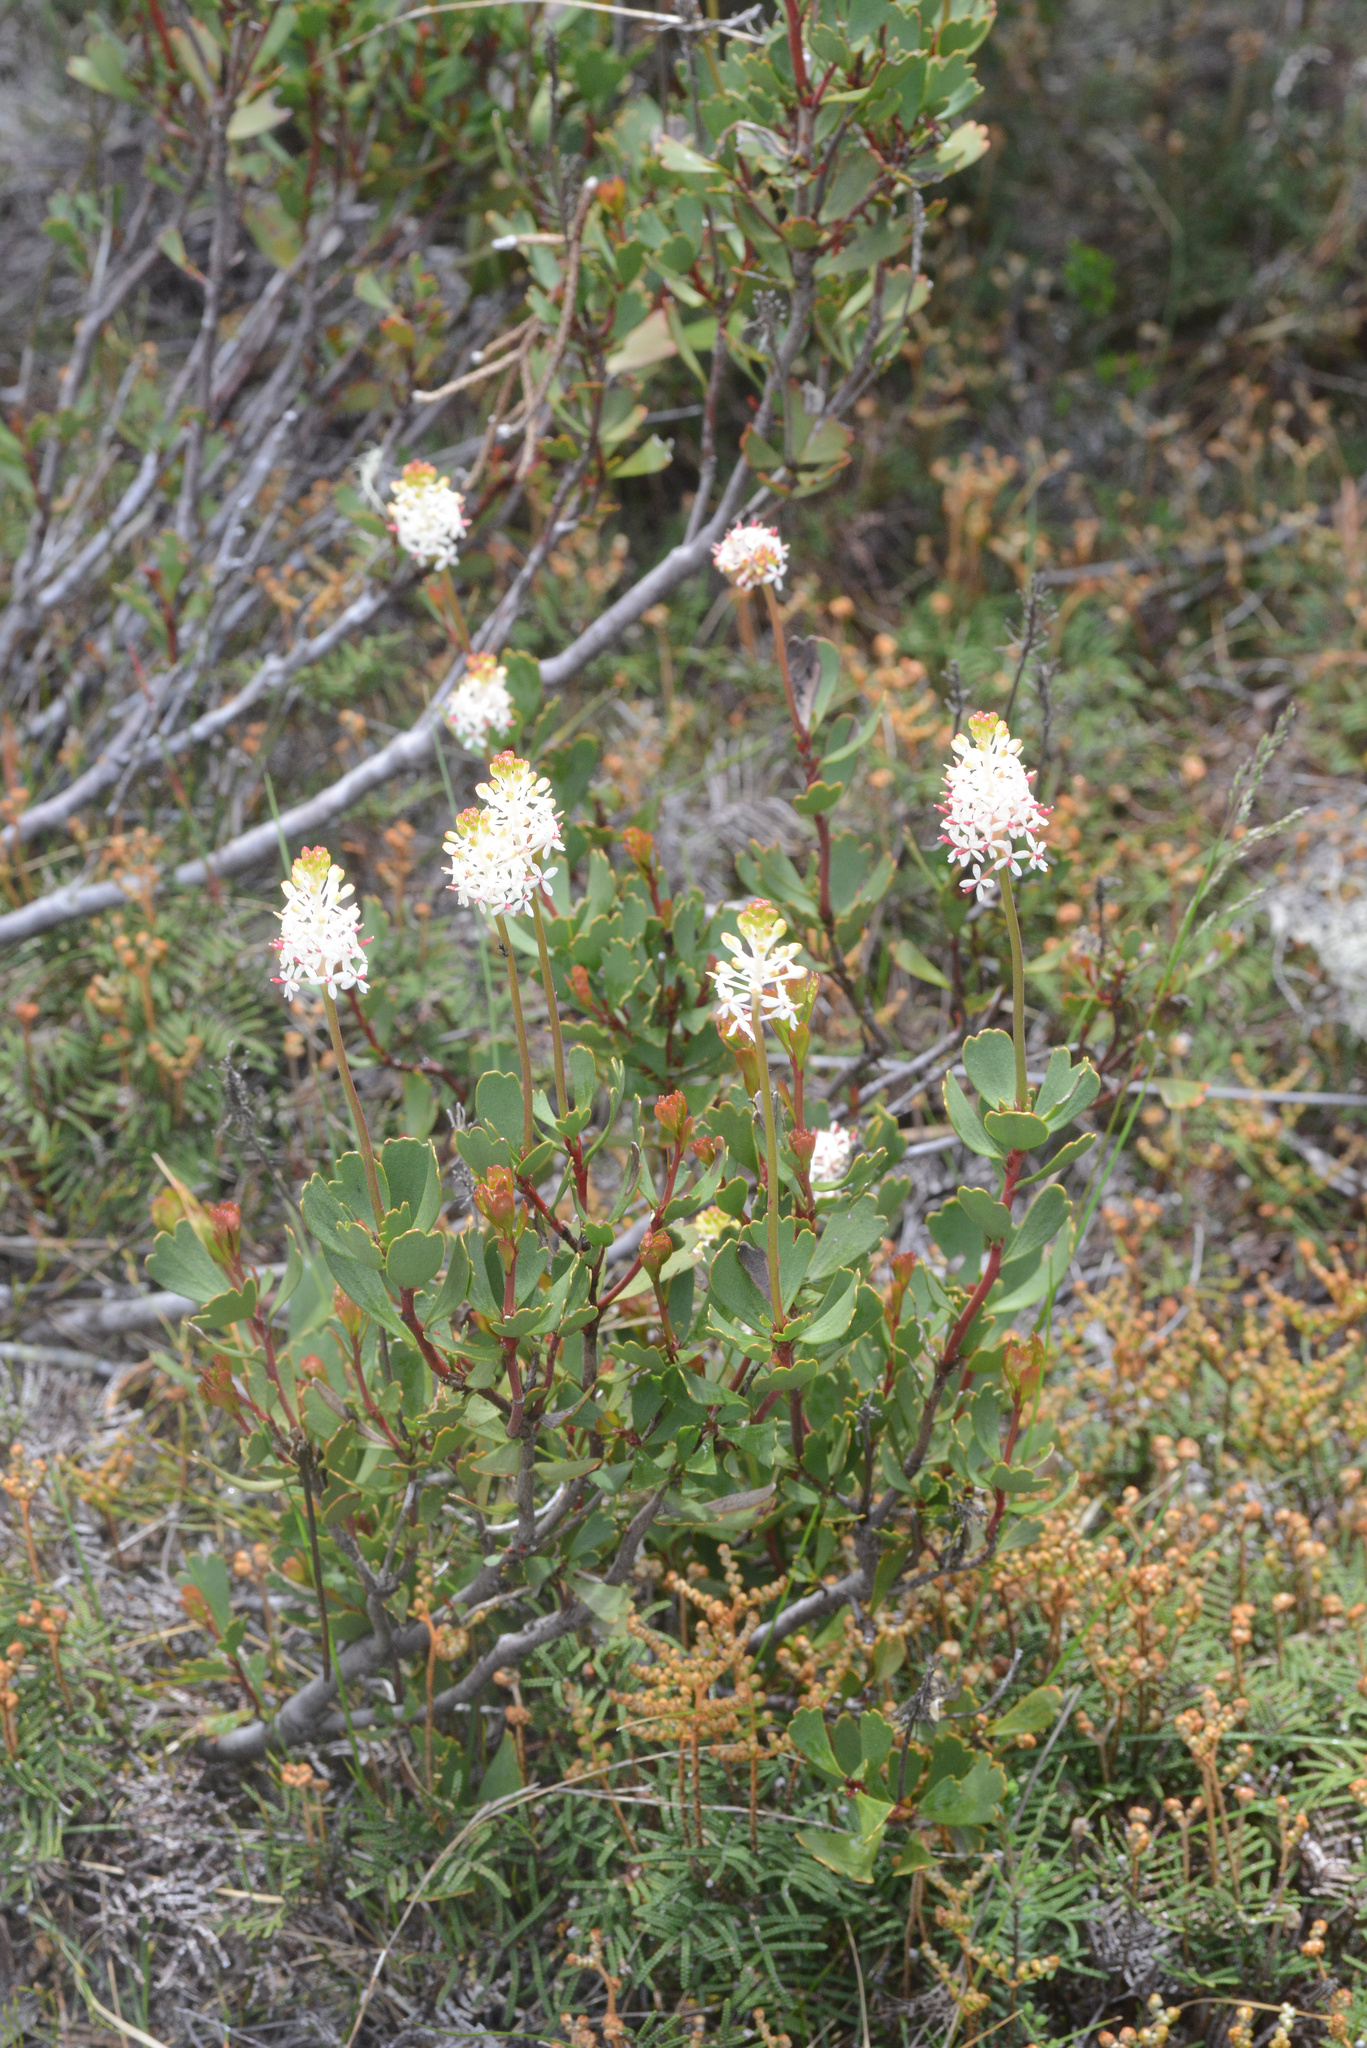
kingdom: Plantae
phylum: Tracheophyta
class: Magnoliopsida
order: Proteales
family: Proteaceae
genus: Bellendena
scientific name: Bellendena montana
